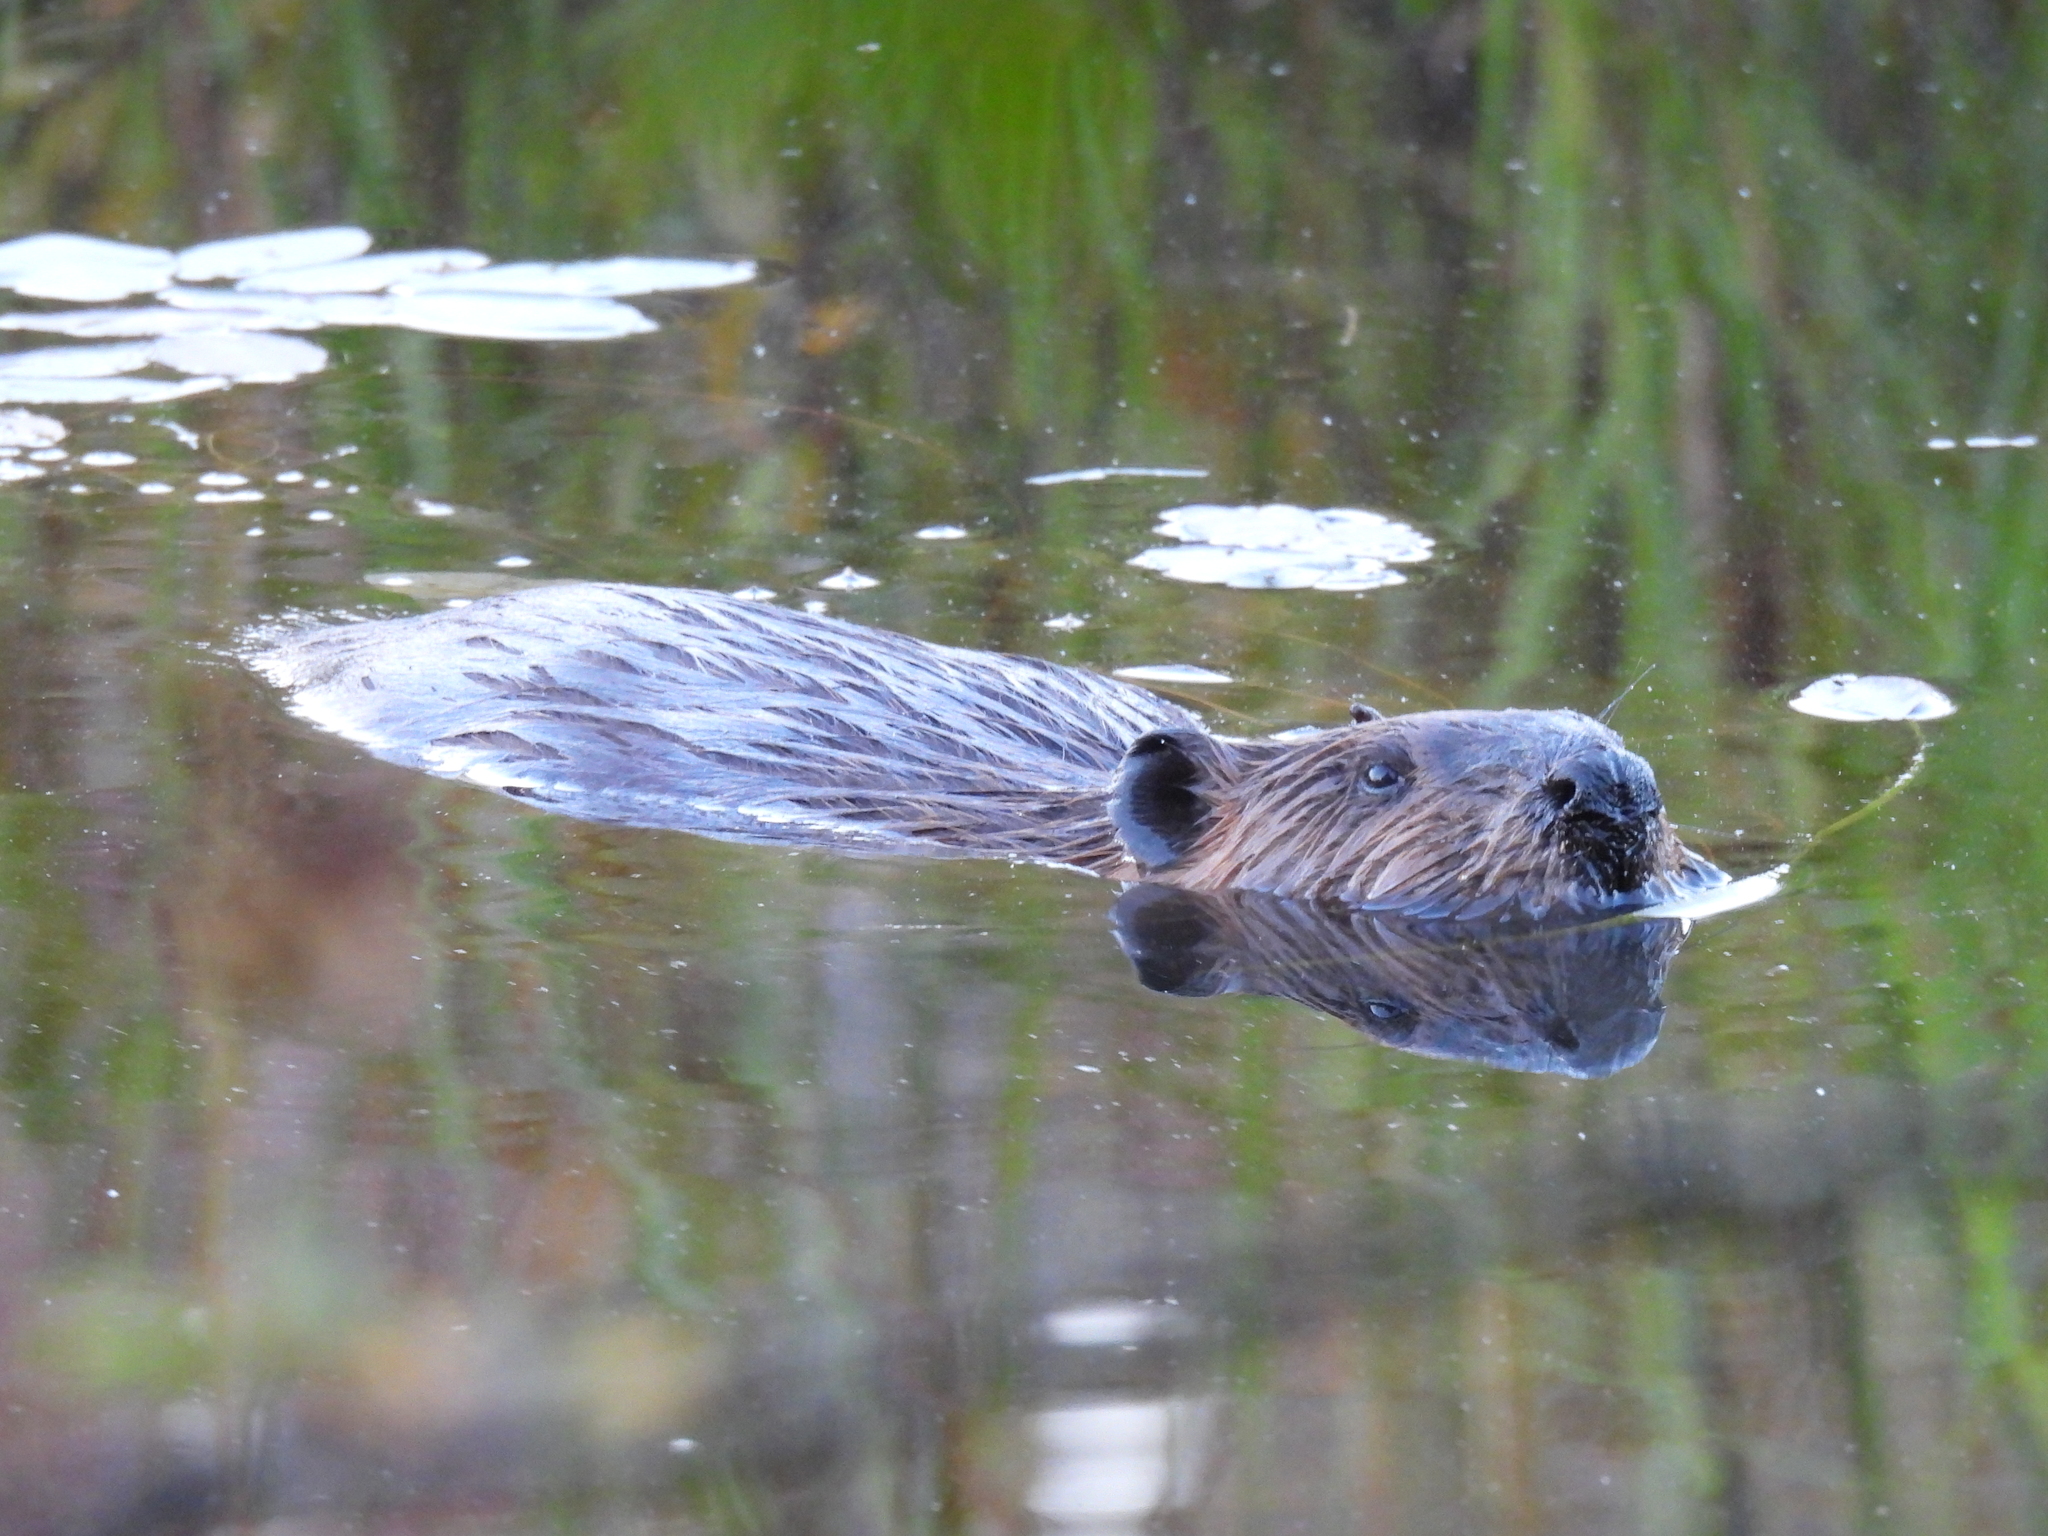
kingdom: Animalia
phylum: Chordata
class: Mammalia
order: Rodentia
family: Castoridae
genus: Castor
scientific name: Castor canadensis
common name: American beaver
